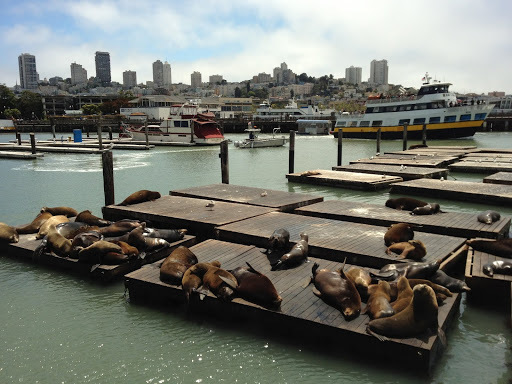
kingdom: Animalia
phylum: Chordata
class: Mammalia
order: Carnivora
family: Otariidae
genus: Zalophus
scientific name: Zalophus californianus
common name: California sea lion
